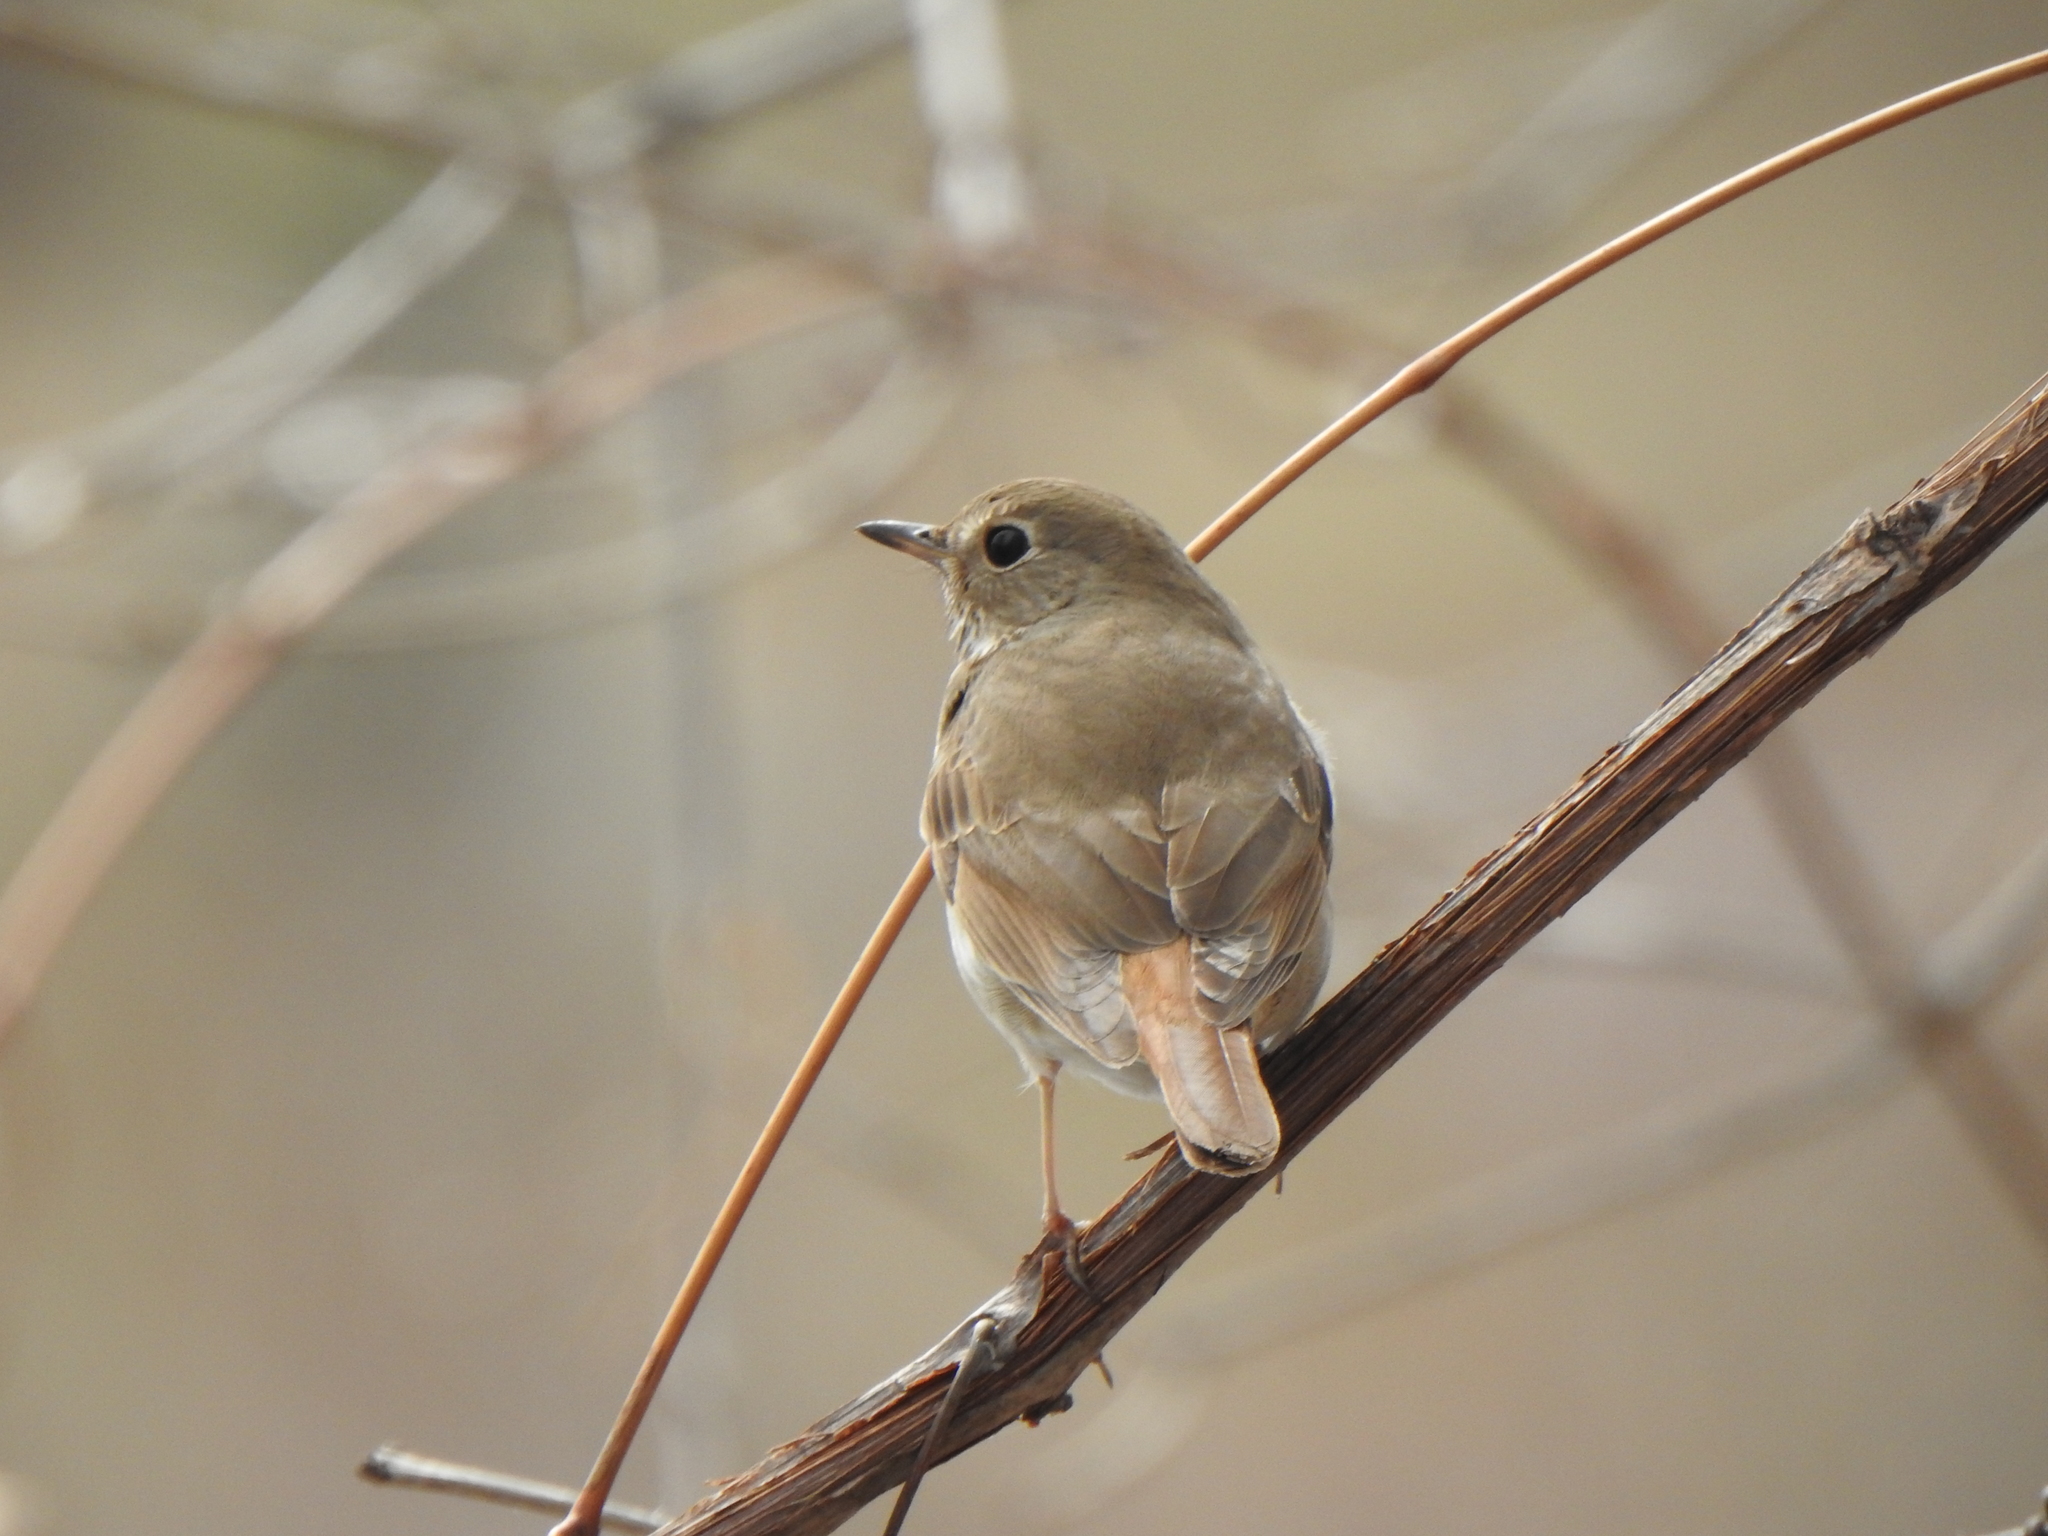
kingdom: Animalia
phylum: Chordata
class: Aves
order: Passeriformes
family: Turdidae
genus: Catharus
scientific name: Catharus guttatus
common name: Hermit thrush
